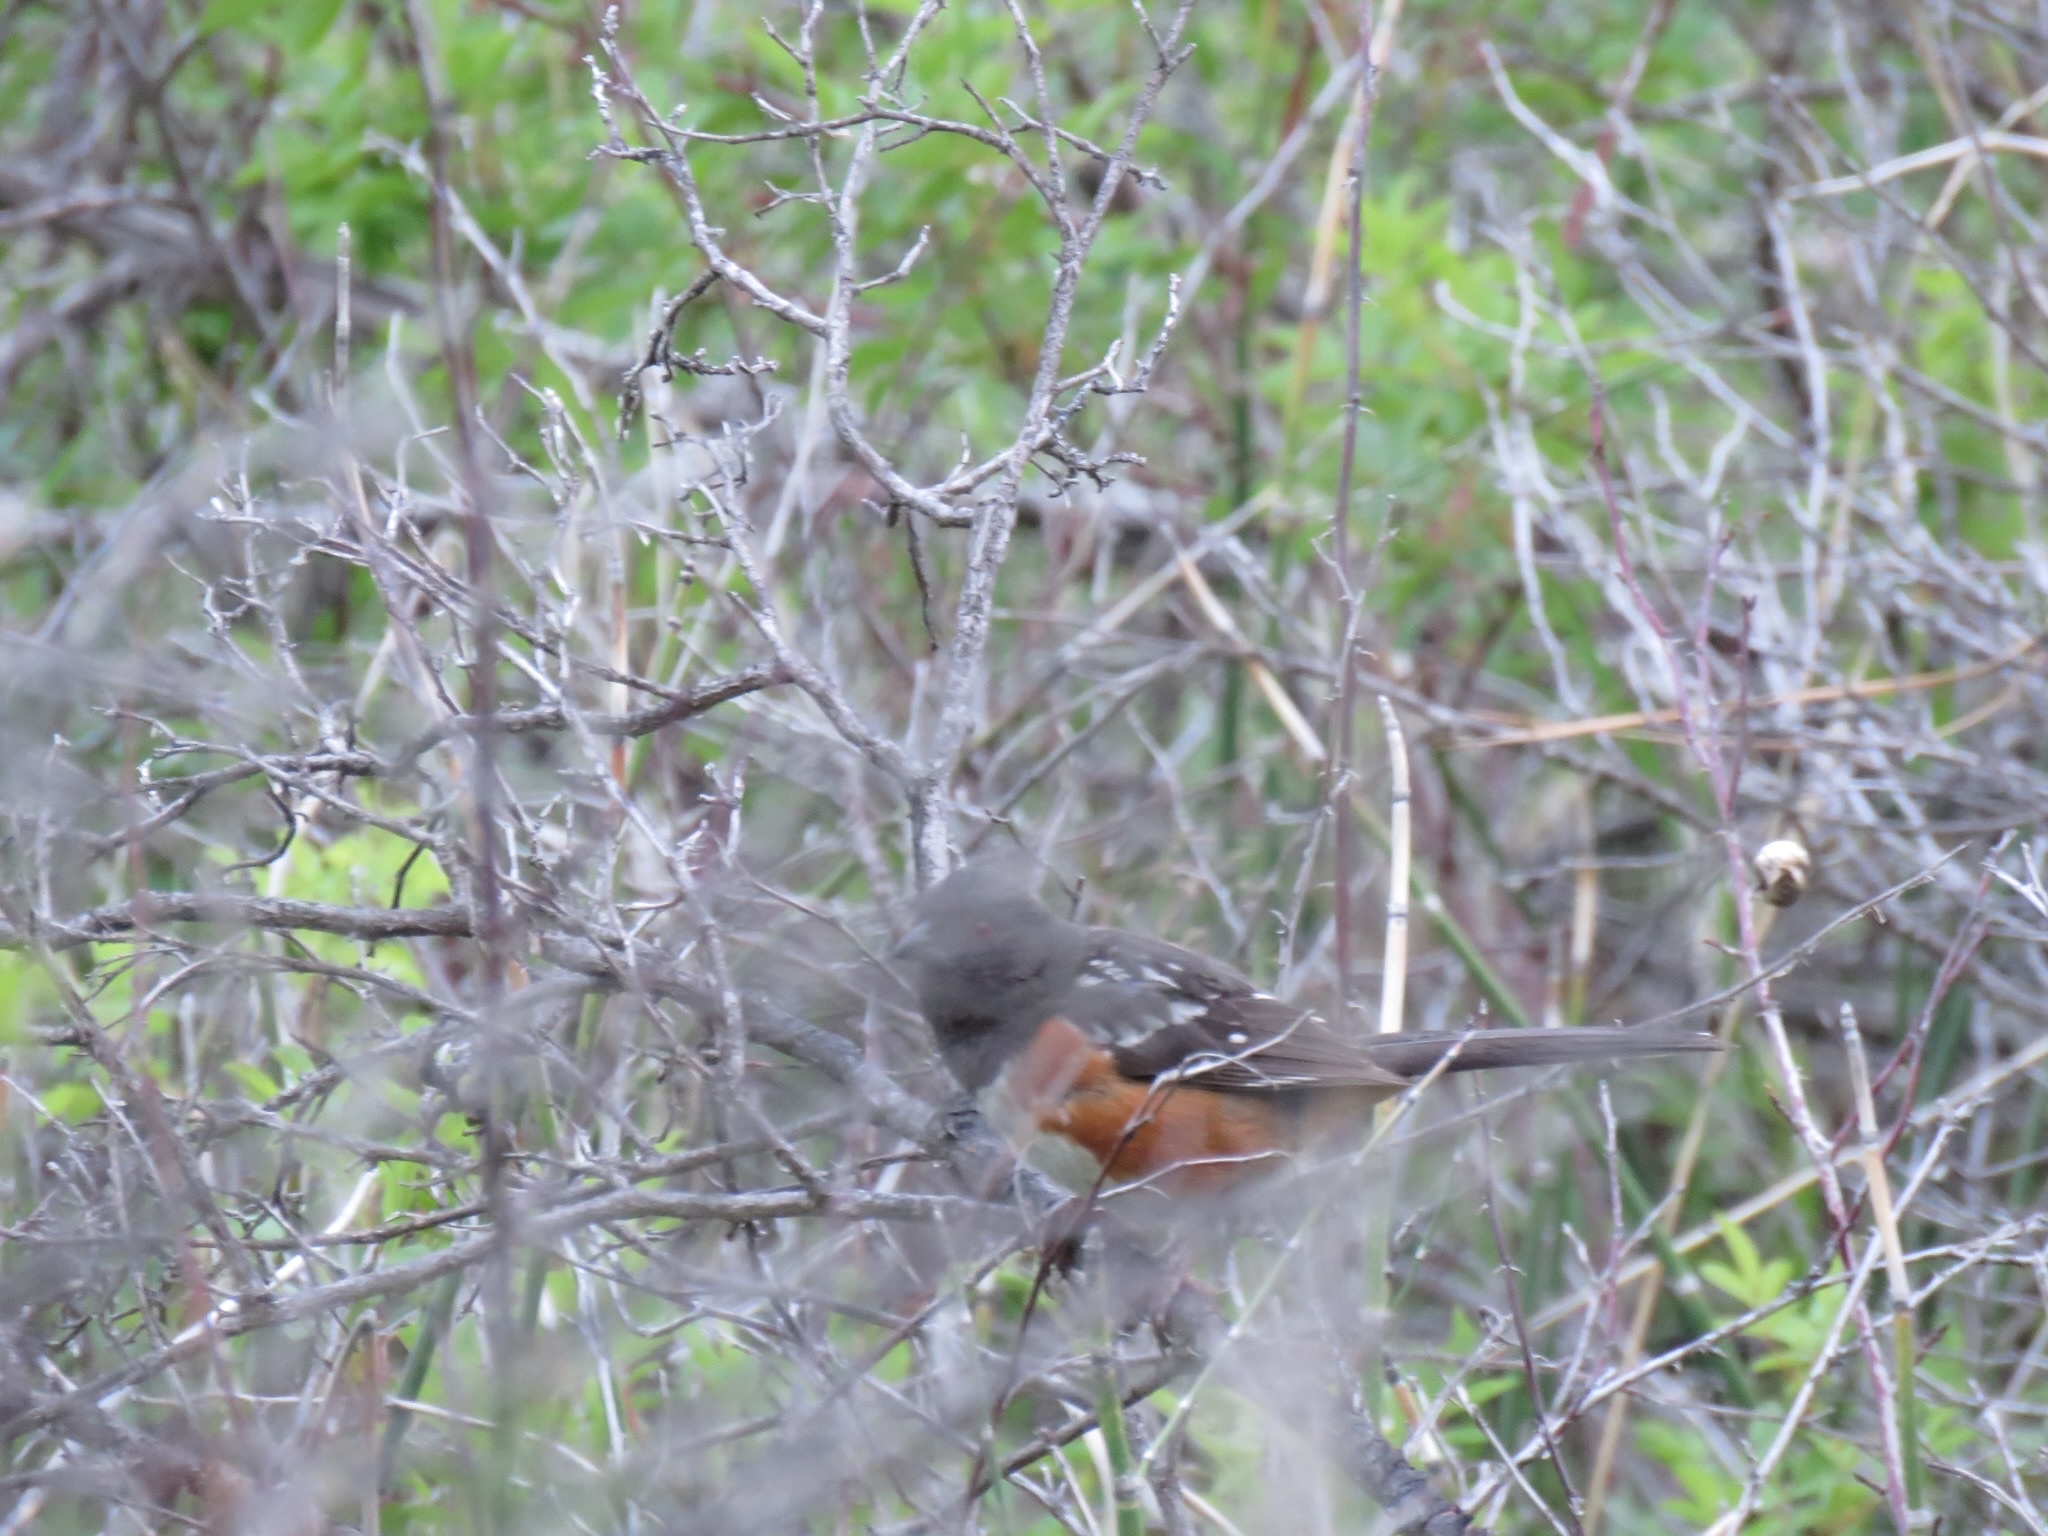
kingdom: Animalia
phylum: Chordata
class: Aves
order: Passeriformes
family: Passerellidae
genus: Pipilo
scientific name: Pipilo maculatus
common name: Spotted towhee
